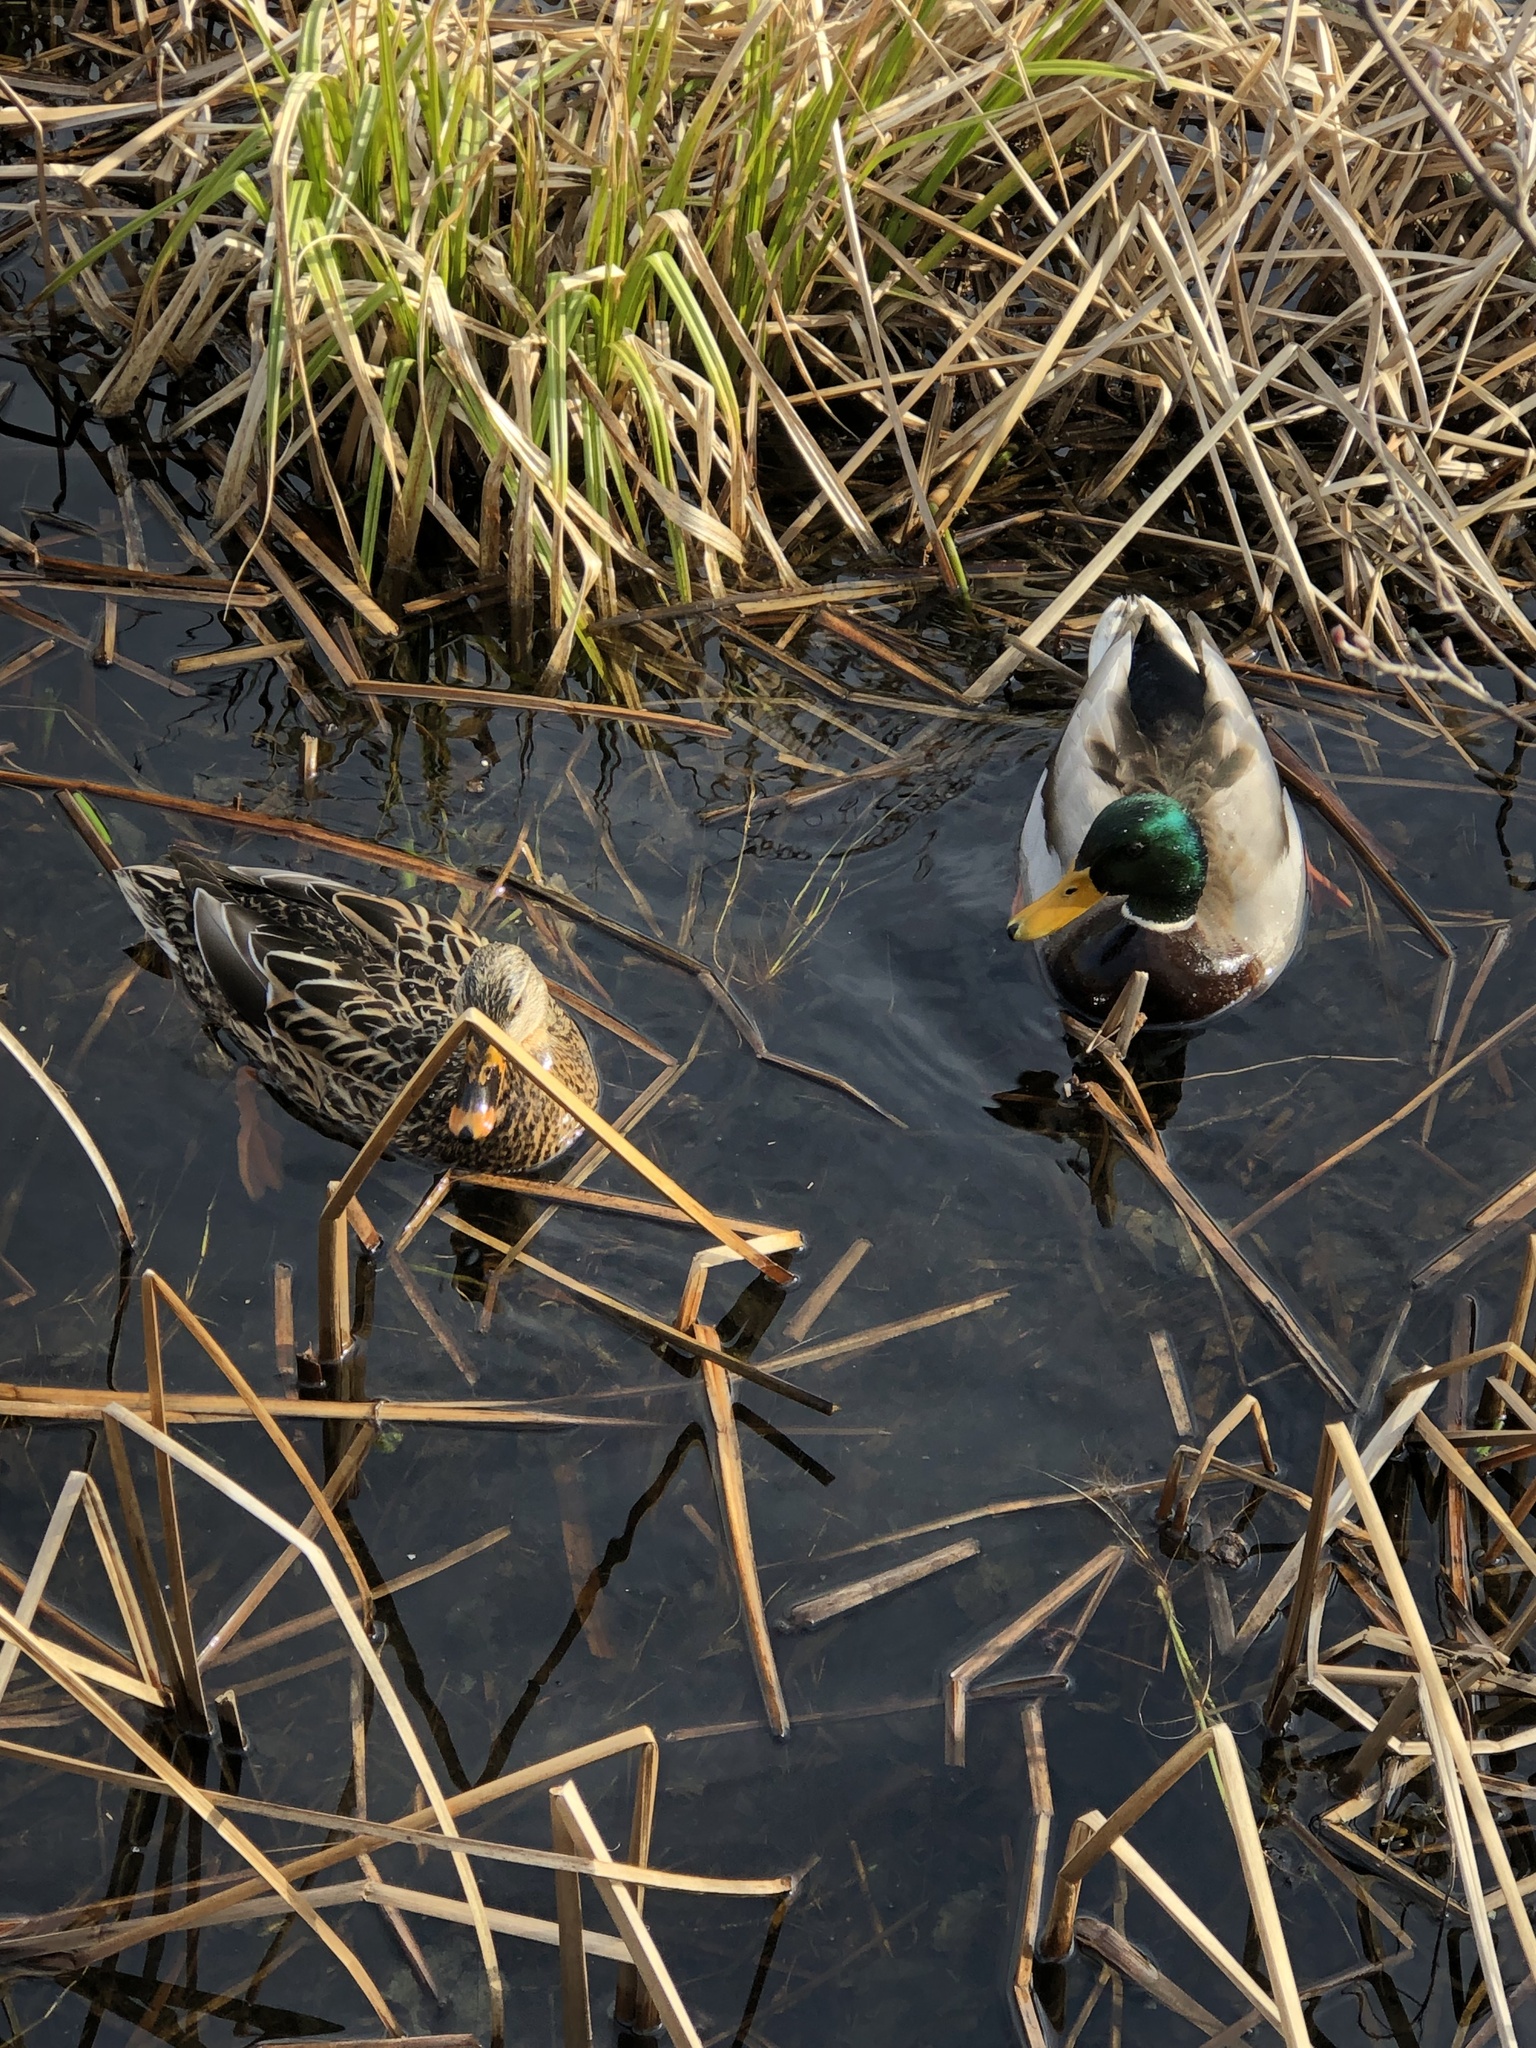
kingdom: Animalia
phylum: Chordata
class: Aves
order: Anseriformes
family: Anatidae
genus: Anas
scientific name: Anas platyrhynchos
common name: Mallard
